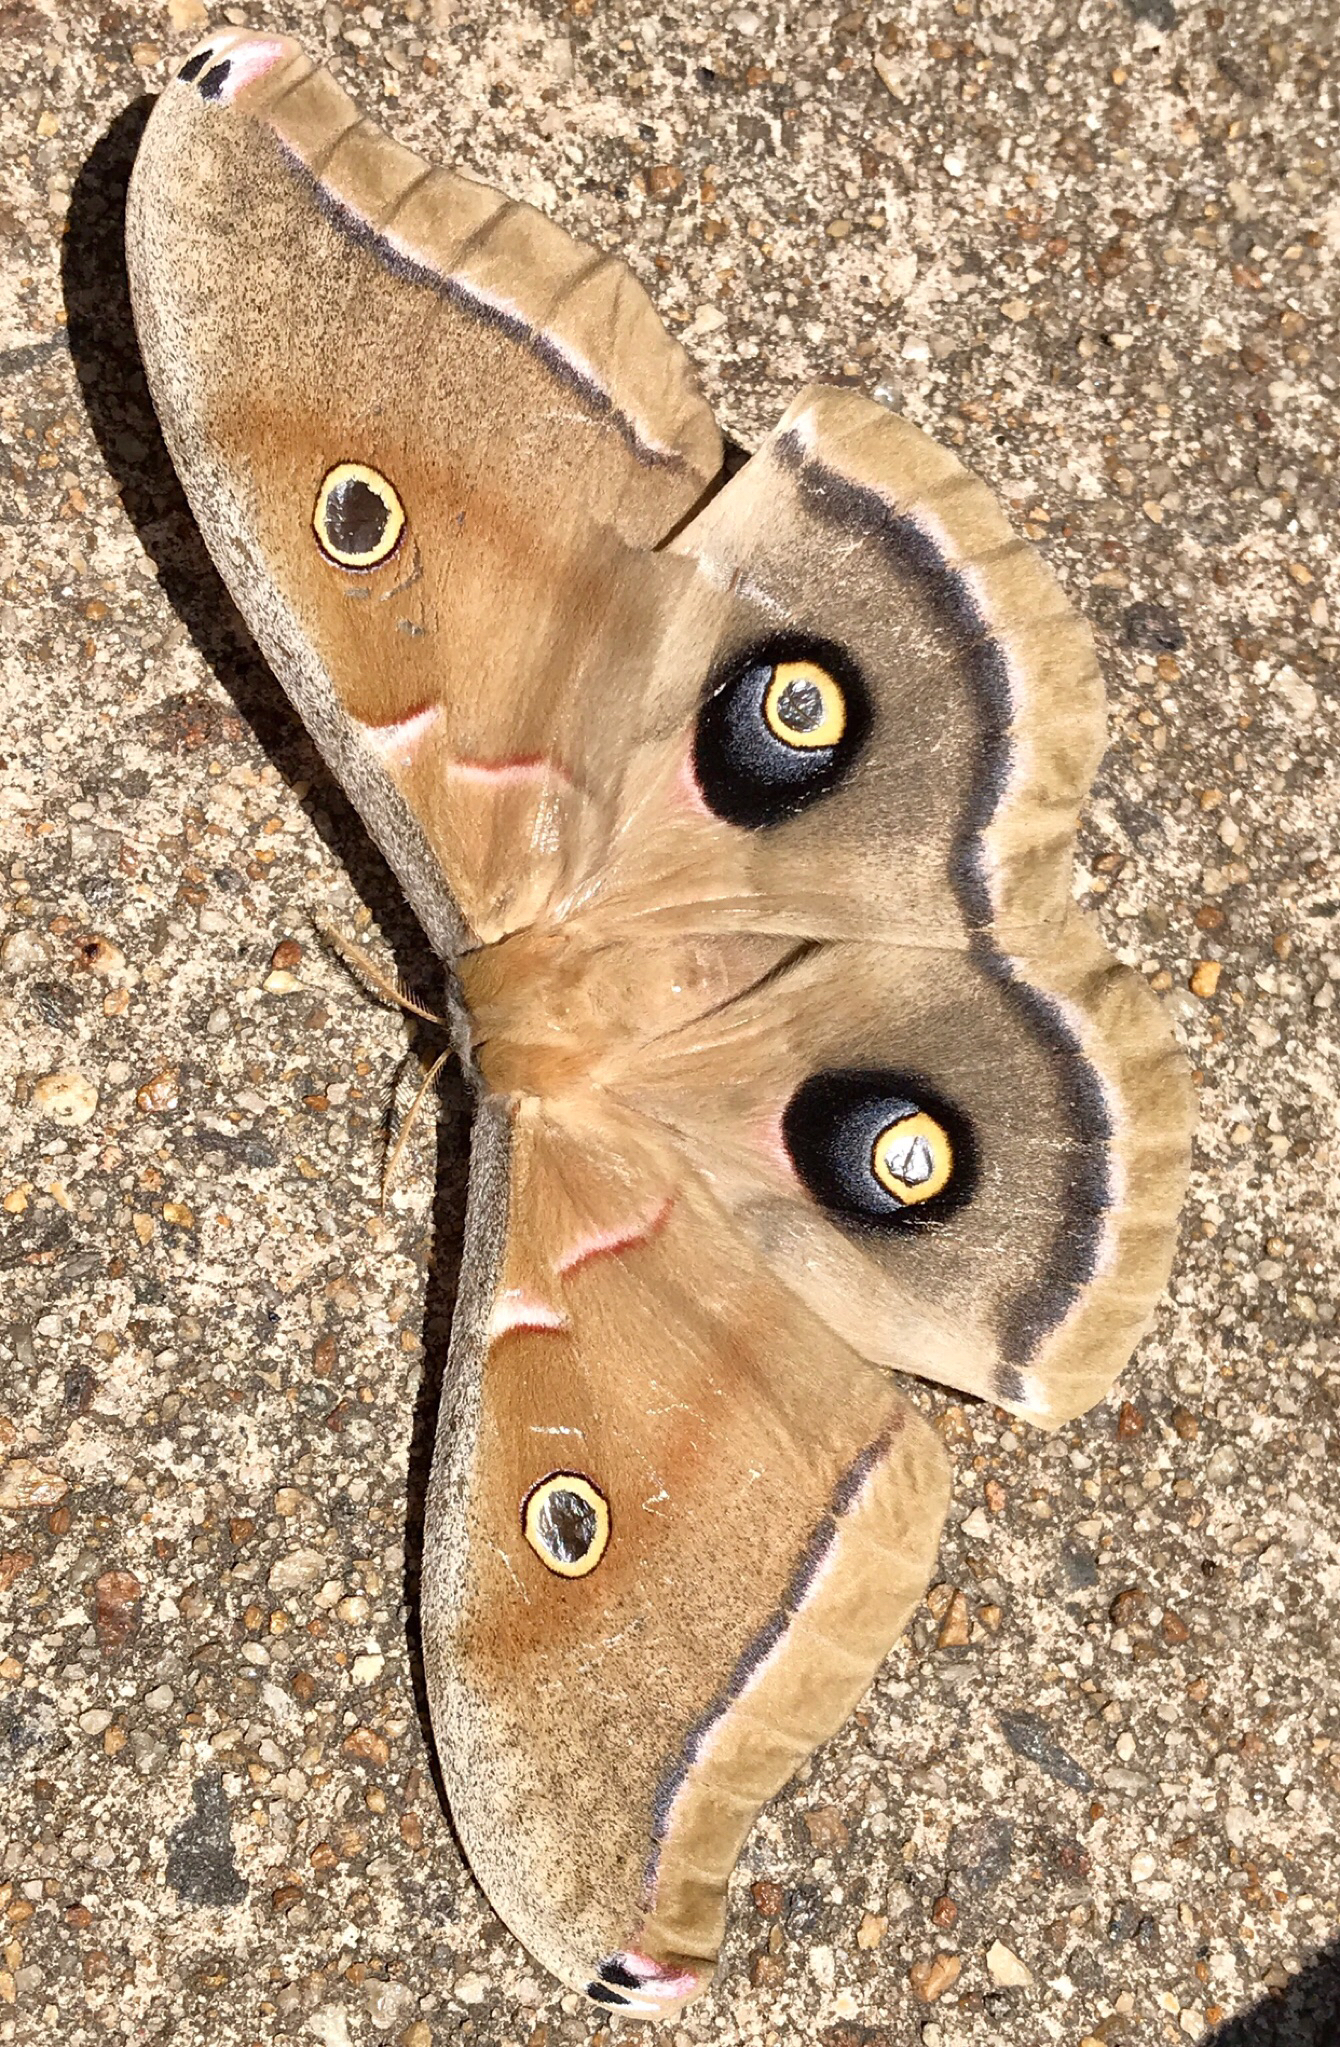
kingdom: Animalia
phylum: Arthropoda
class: Insecta
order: Lepidoptera
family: Saturniidae
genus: Antheraea
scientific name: Antheraea polyphemus
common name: Polyphemus moth
